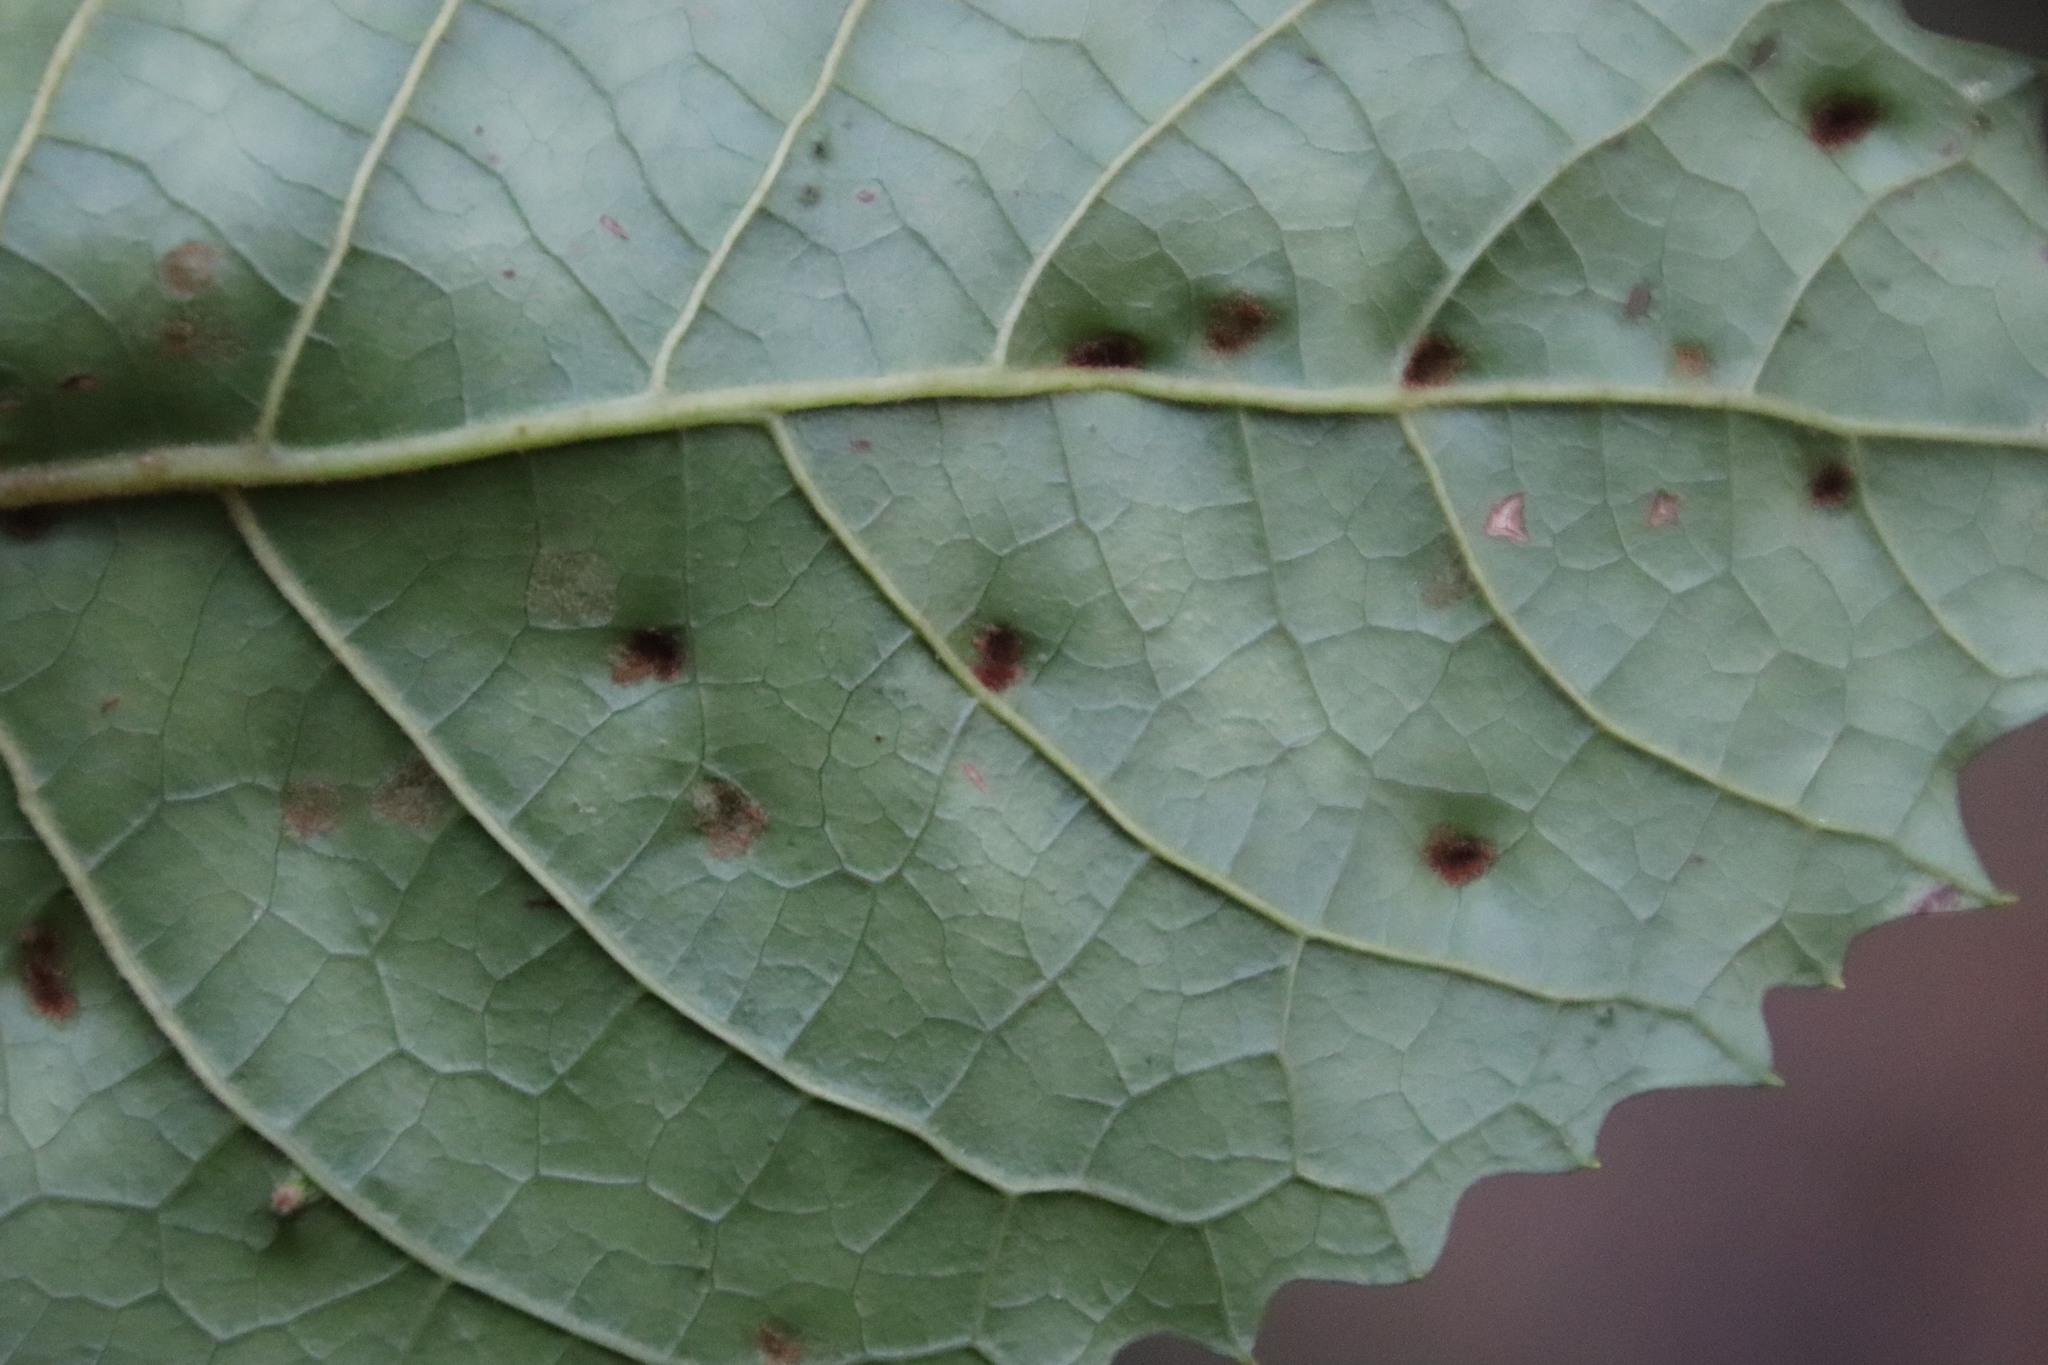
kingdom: Plantae
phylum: Tracheophyta
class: Magnoliopsida
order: Cornales
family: Curtisiaceae
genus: Curtisia
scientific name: Curtisia dentata
